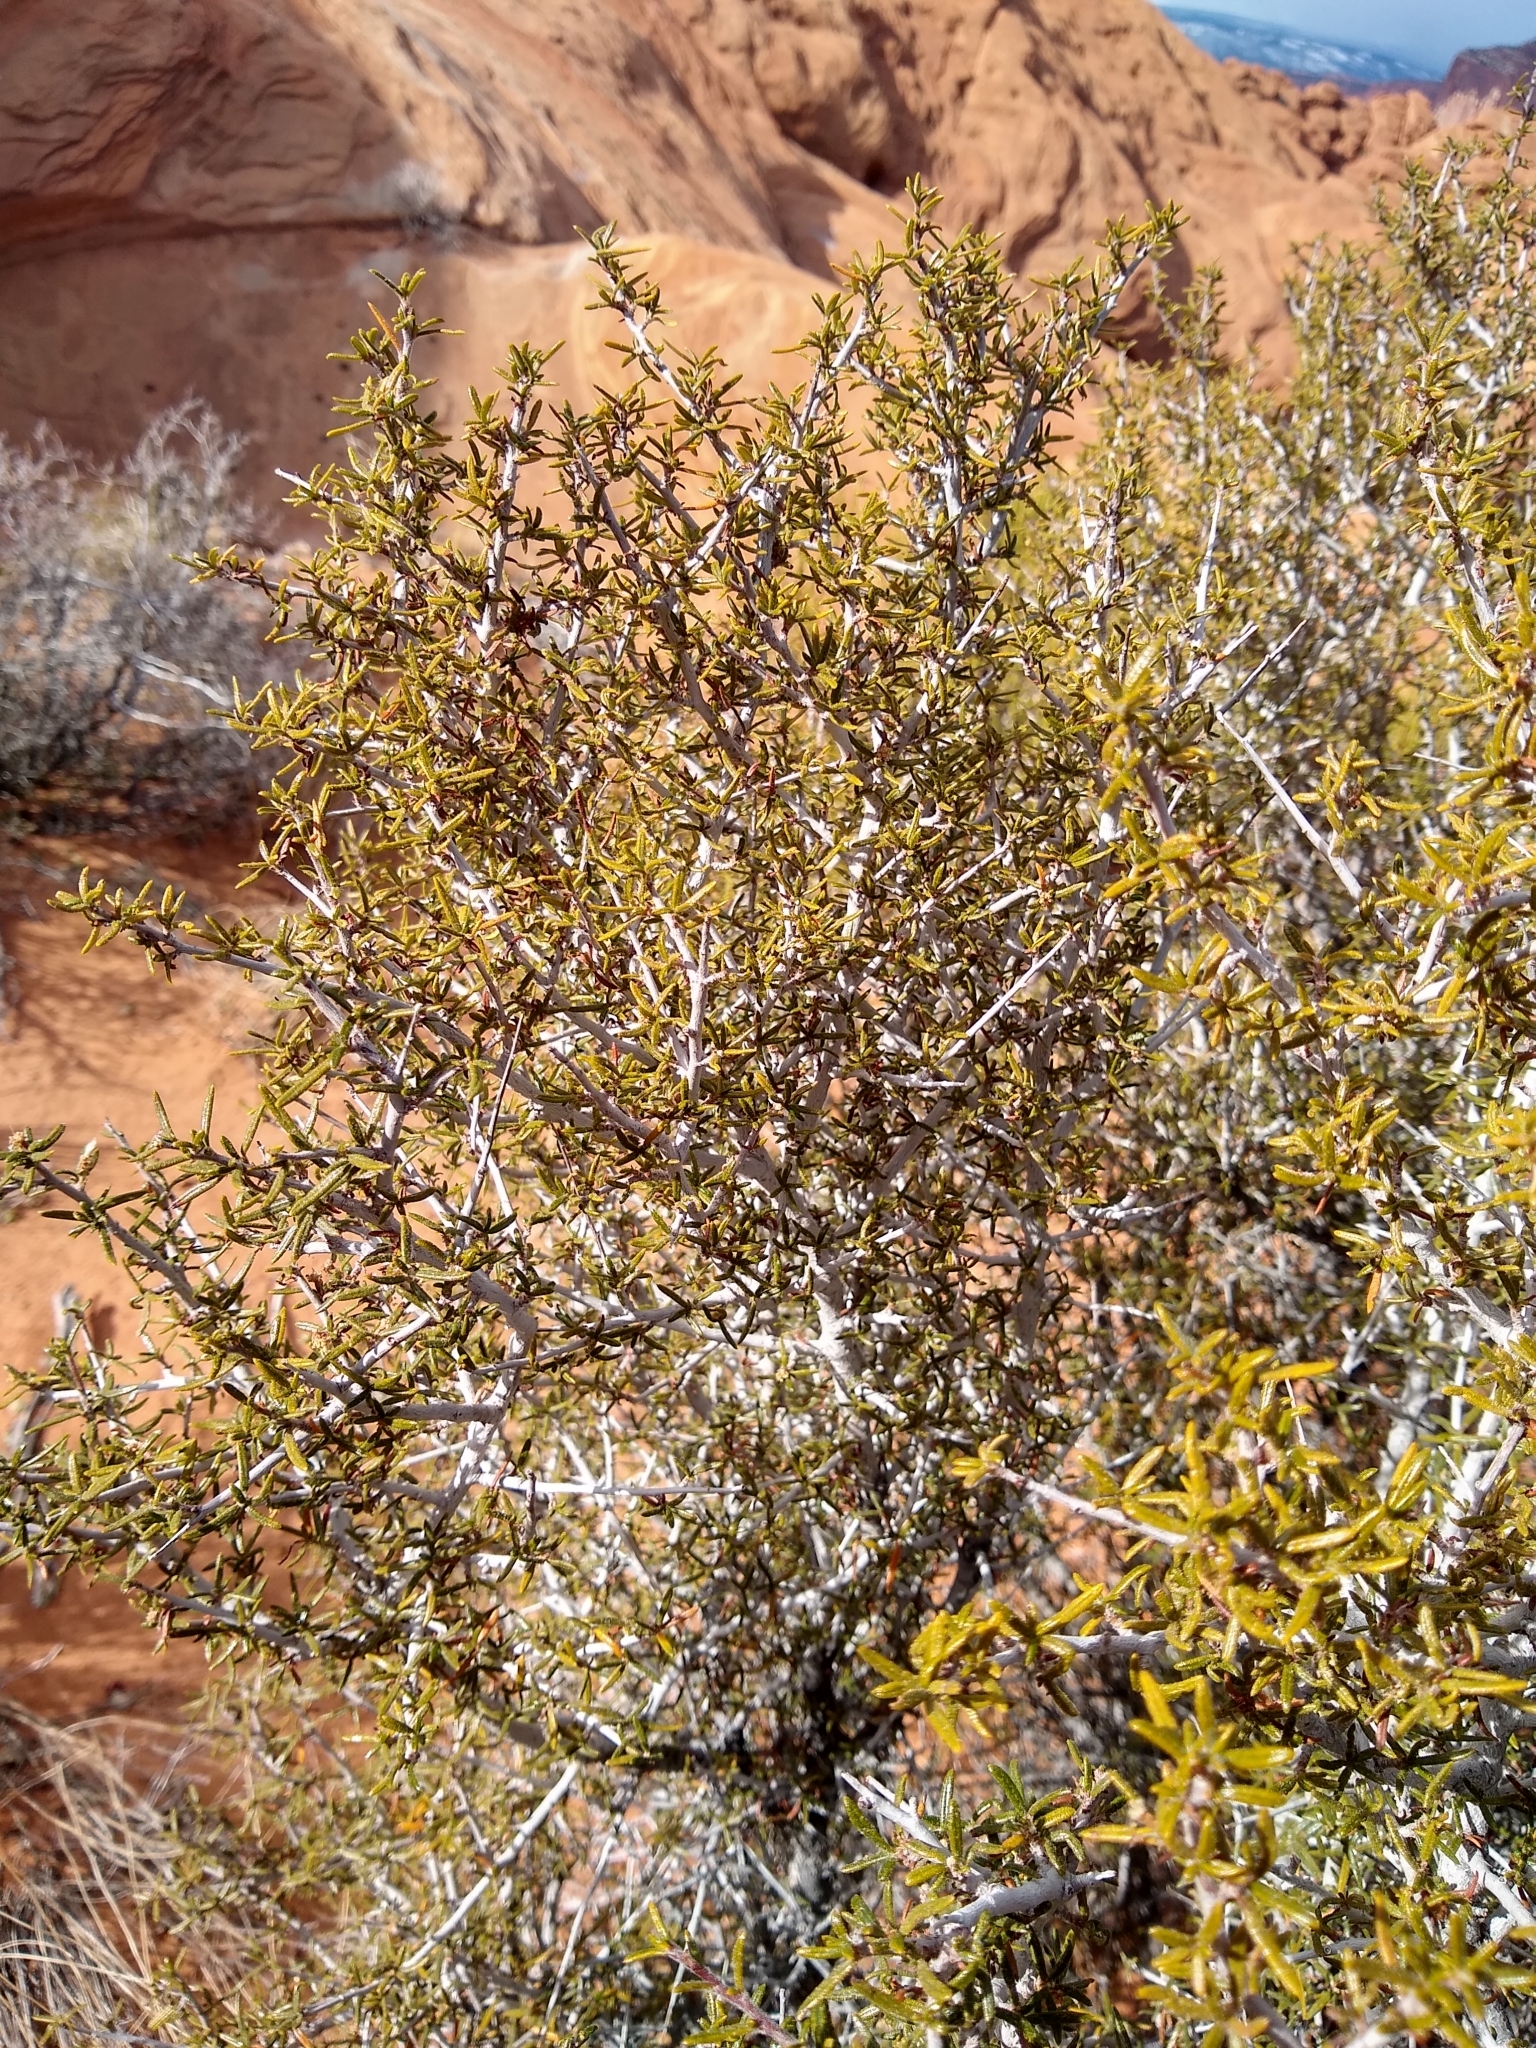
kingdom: Plantae
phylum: Tracheophyta
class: Magnoliopsida
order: Rosales
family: Rosaceae
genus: Cercocarpus
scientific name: Cercocarpus intricatus
